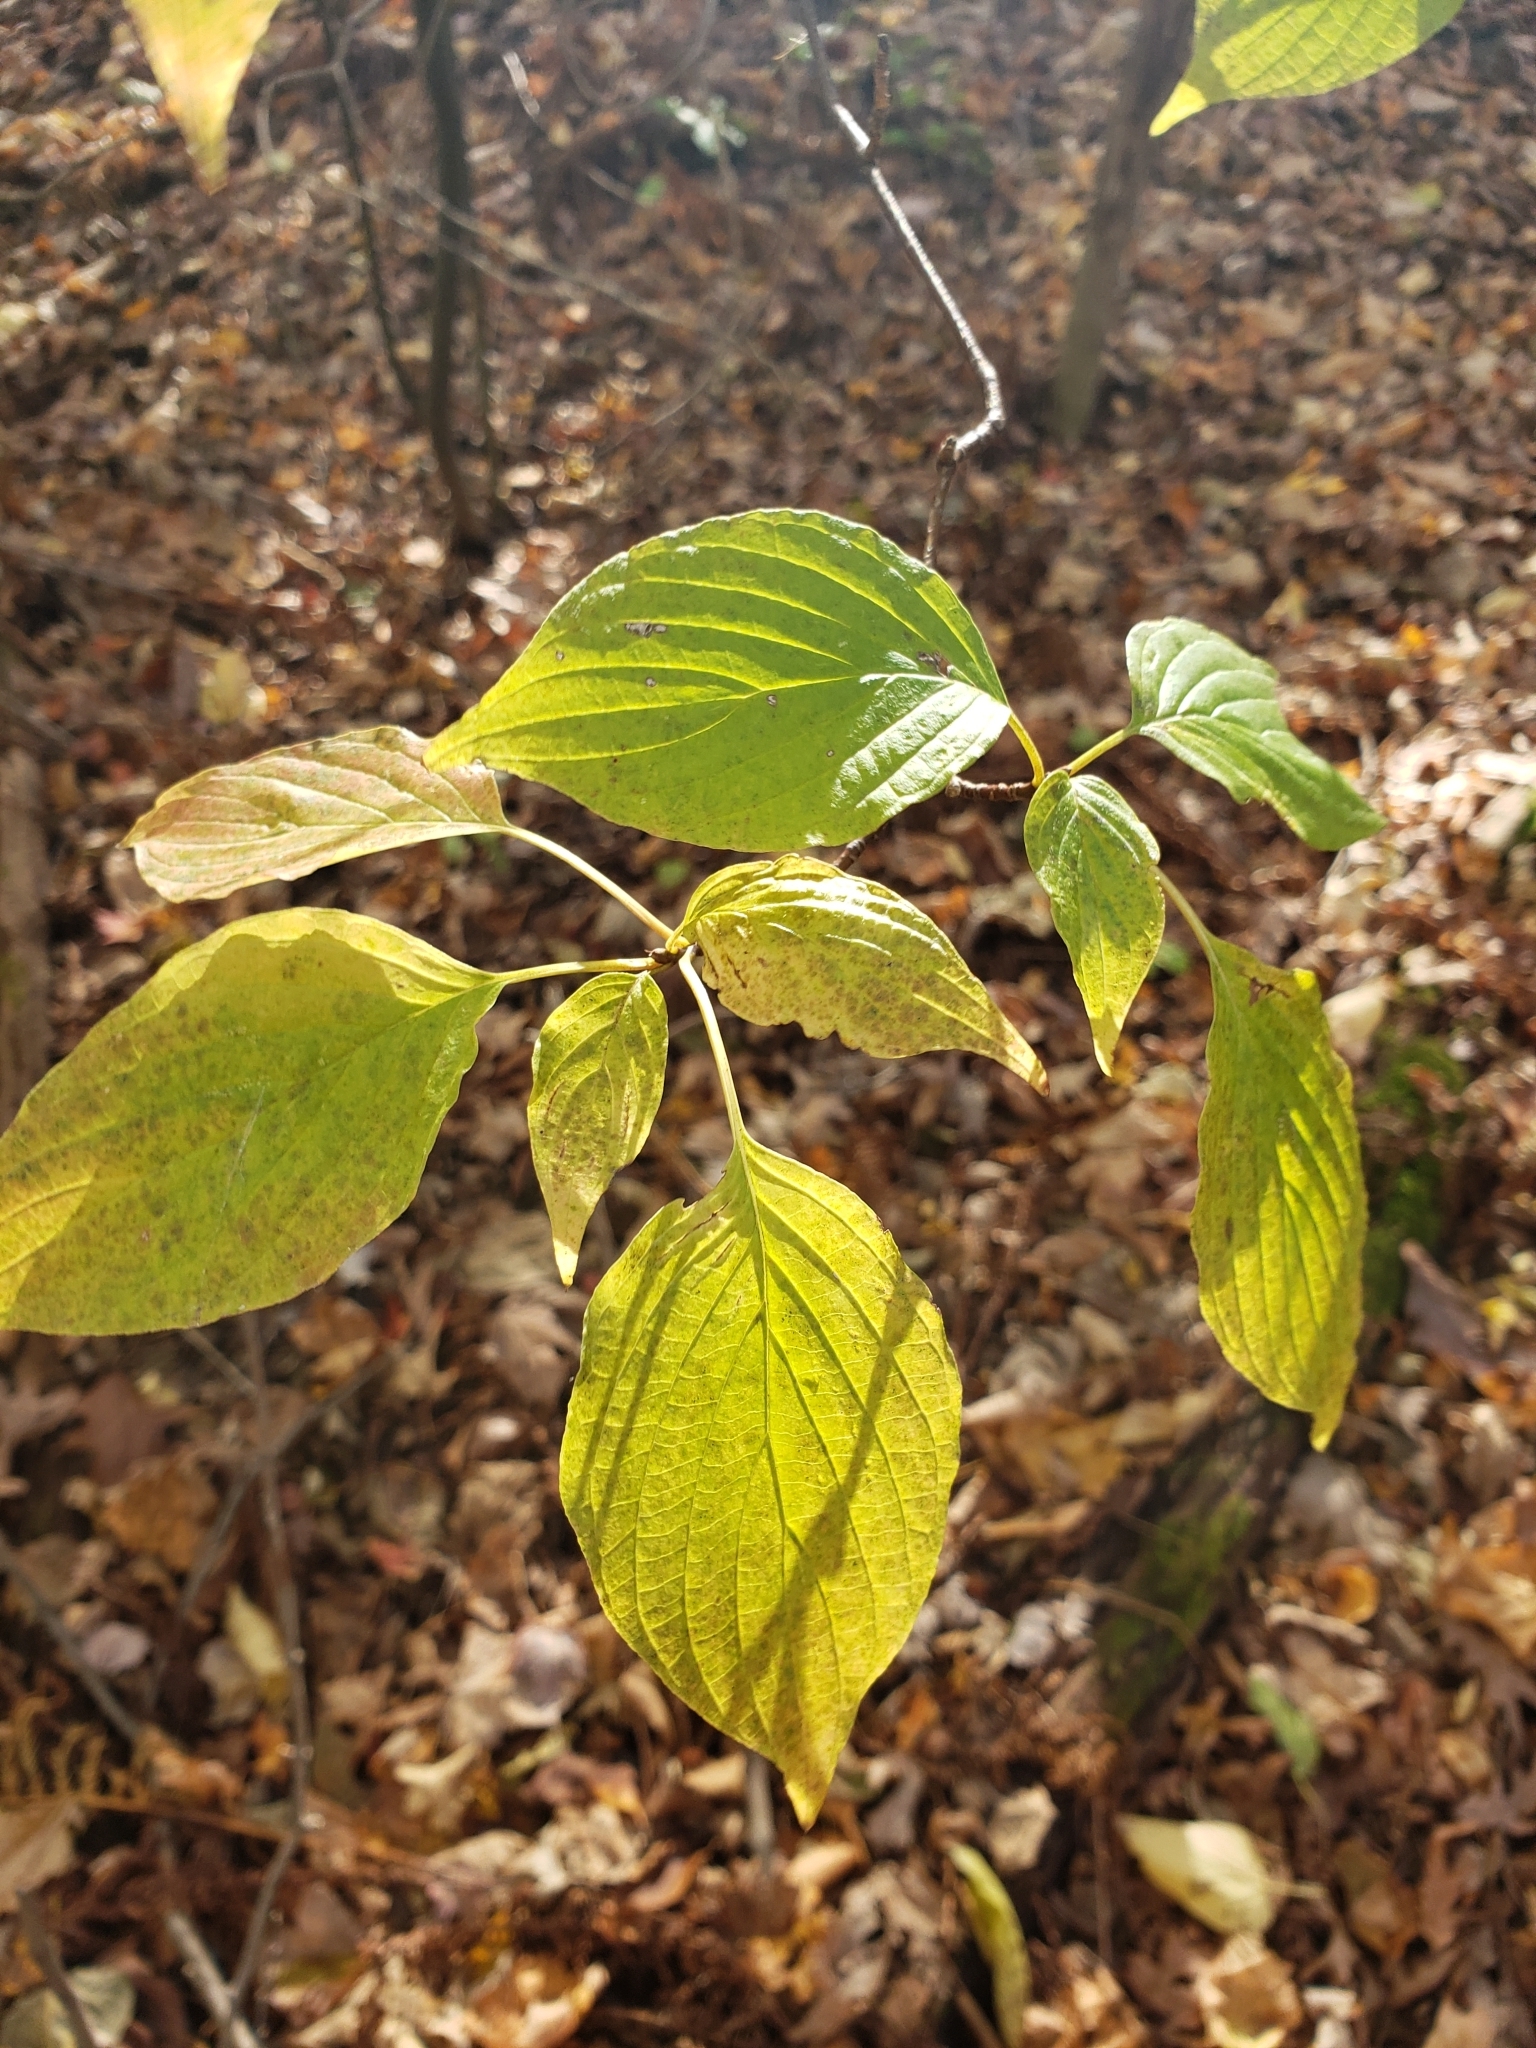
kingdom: Plantae
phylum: Tracheophyta
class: Magnoliopsida
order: Cornales
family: Cornaceae
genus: Cornus
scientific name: Cornus alternifolia
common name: Pagoda dogwood
